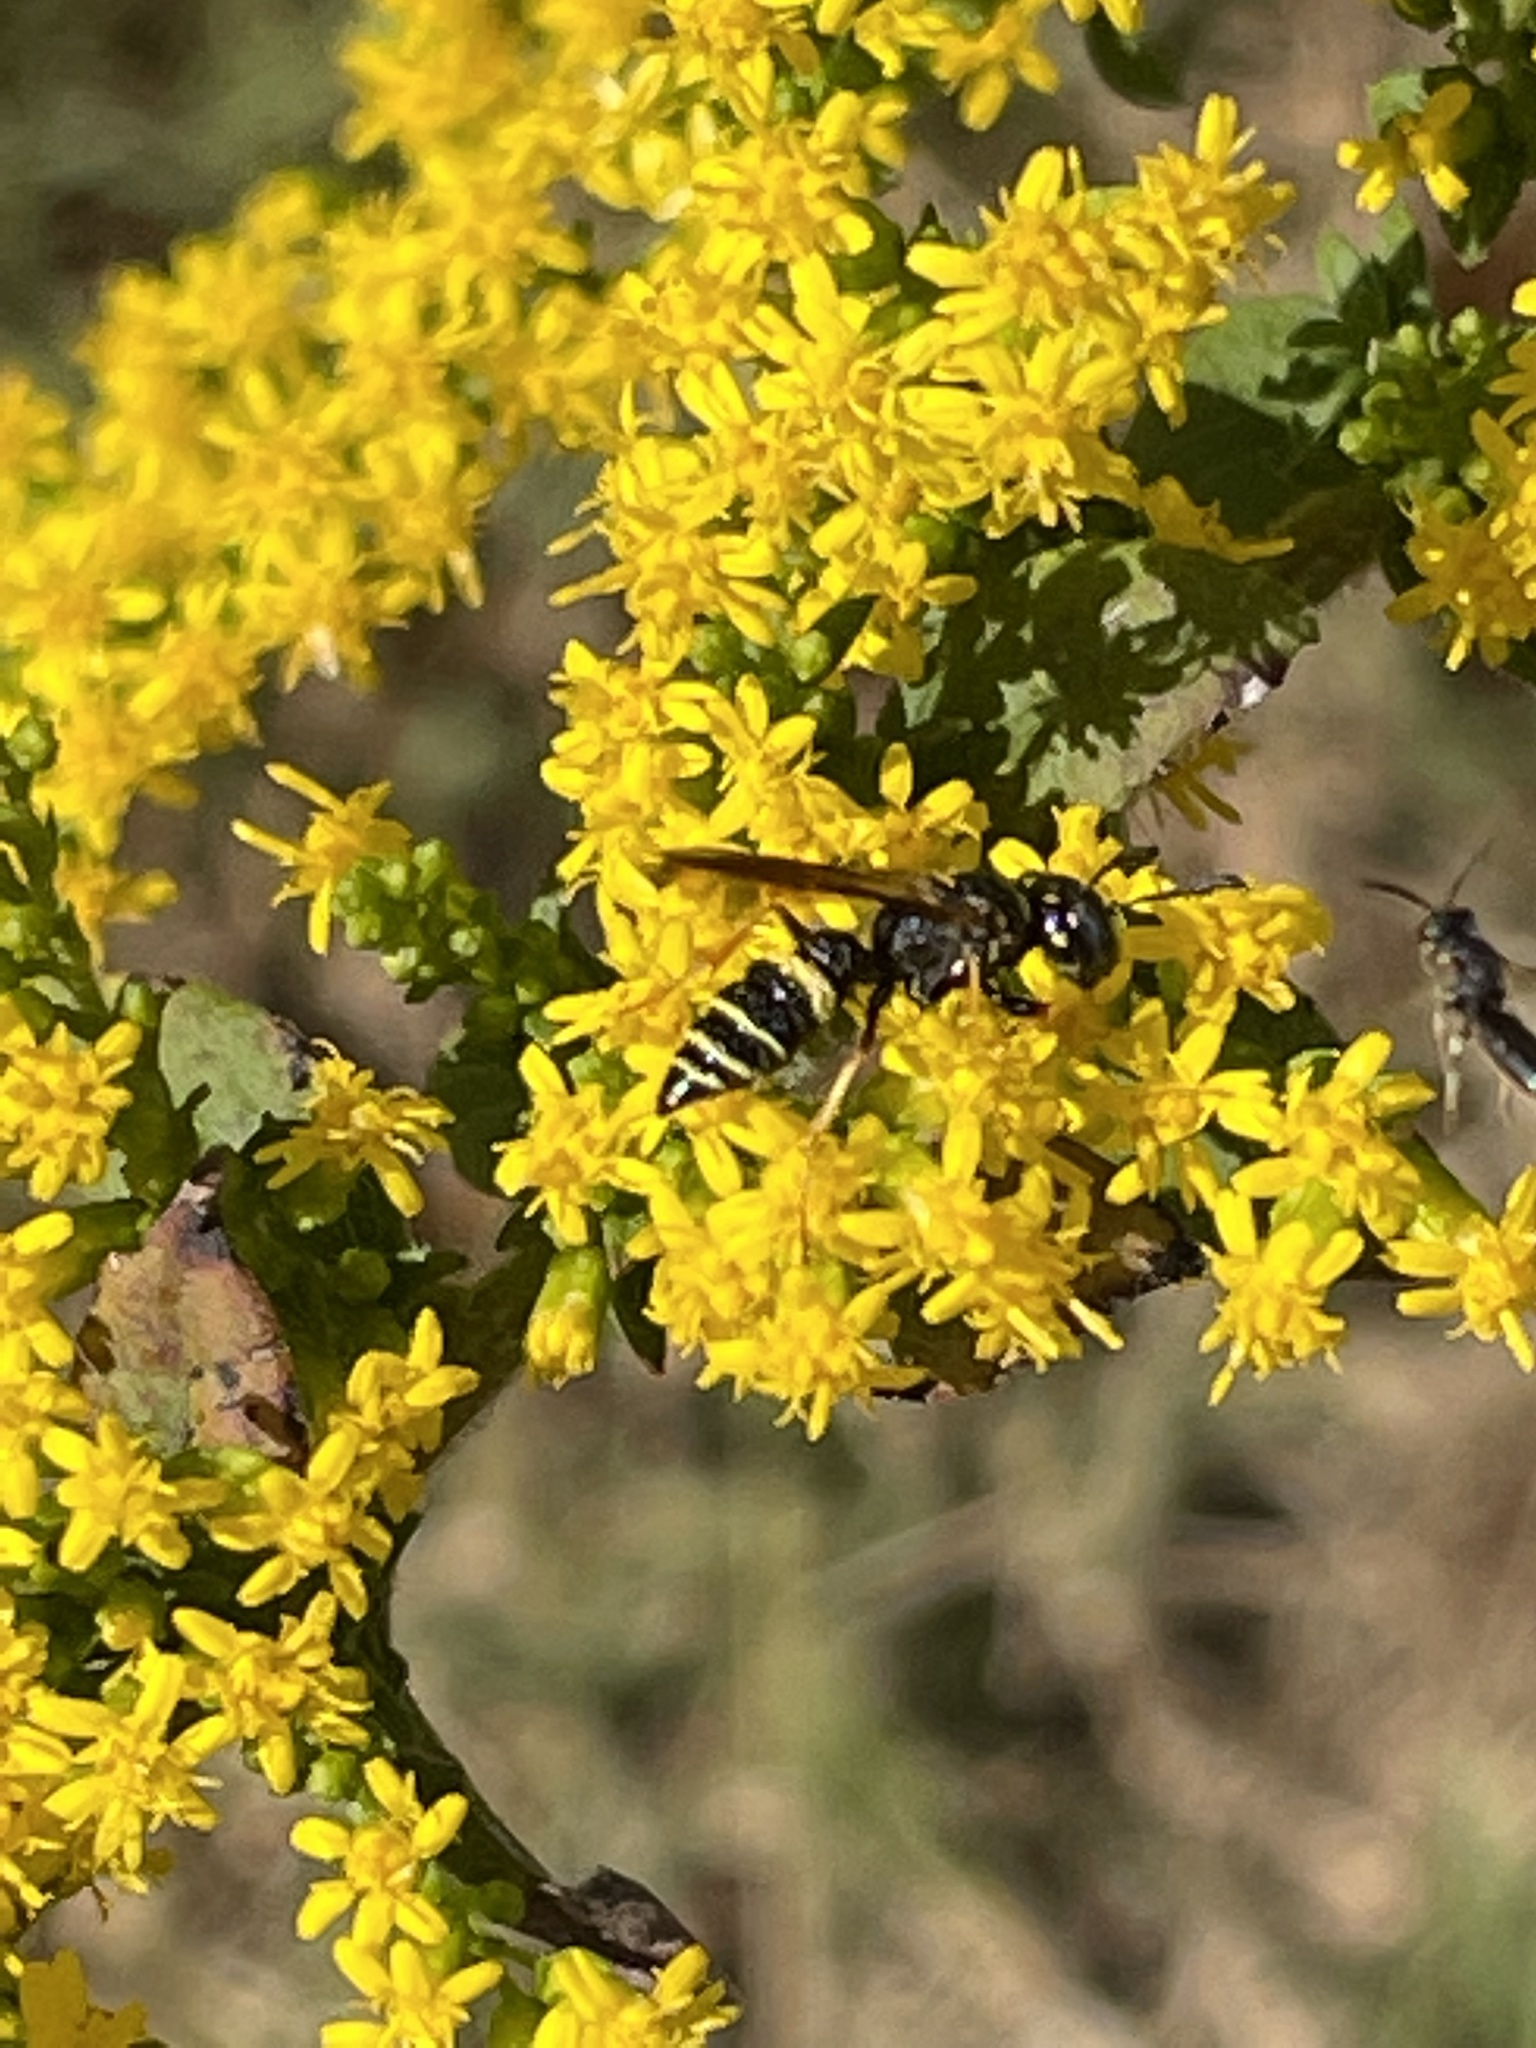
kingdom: Animalia
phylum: Arthropoda
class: Insecta
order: Hymenoptera
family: Crabronidae
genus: Philanthus
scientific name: Philanthus gibbosus
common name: Humped beewolf
